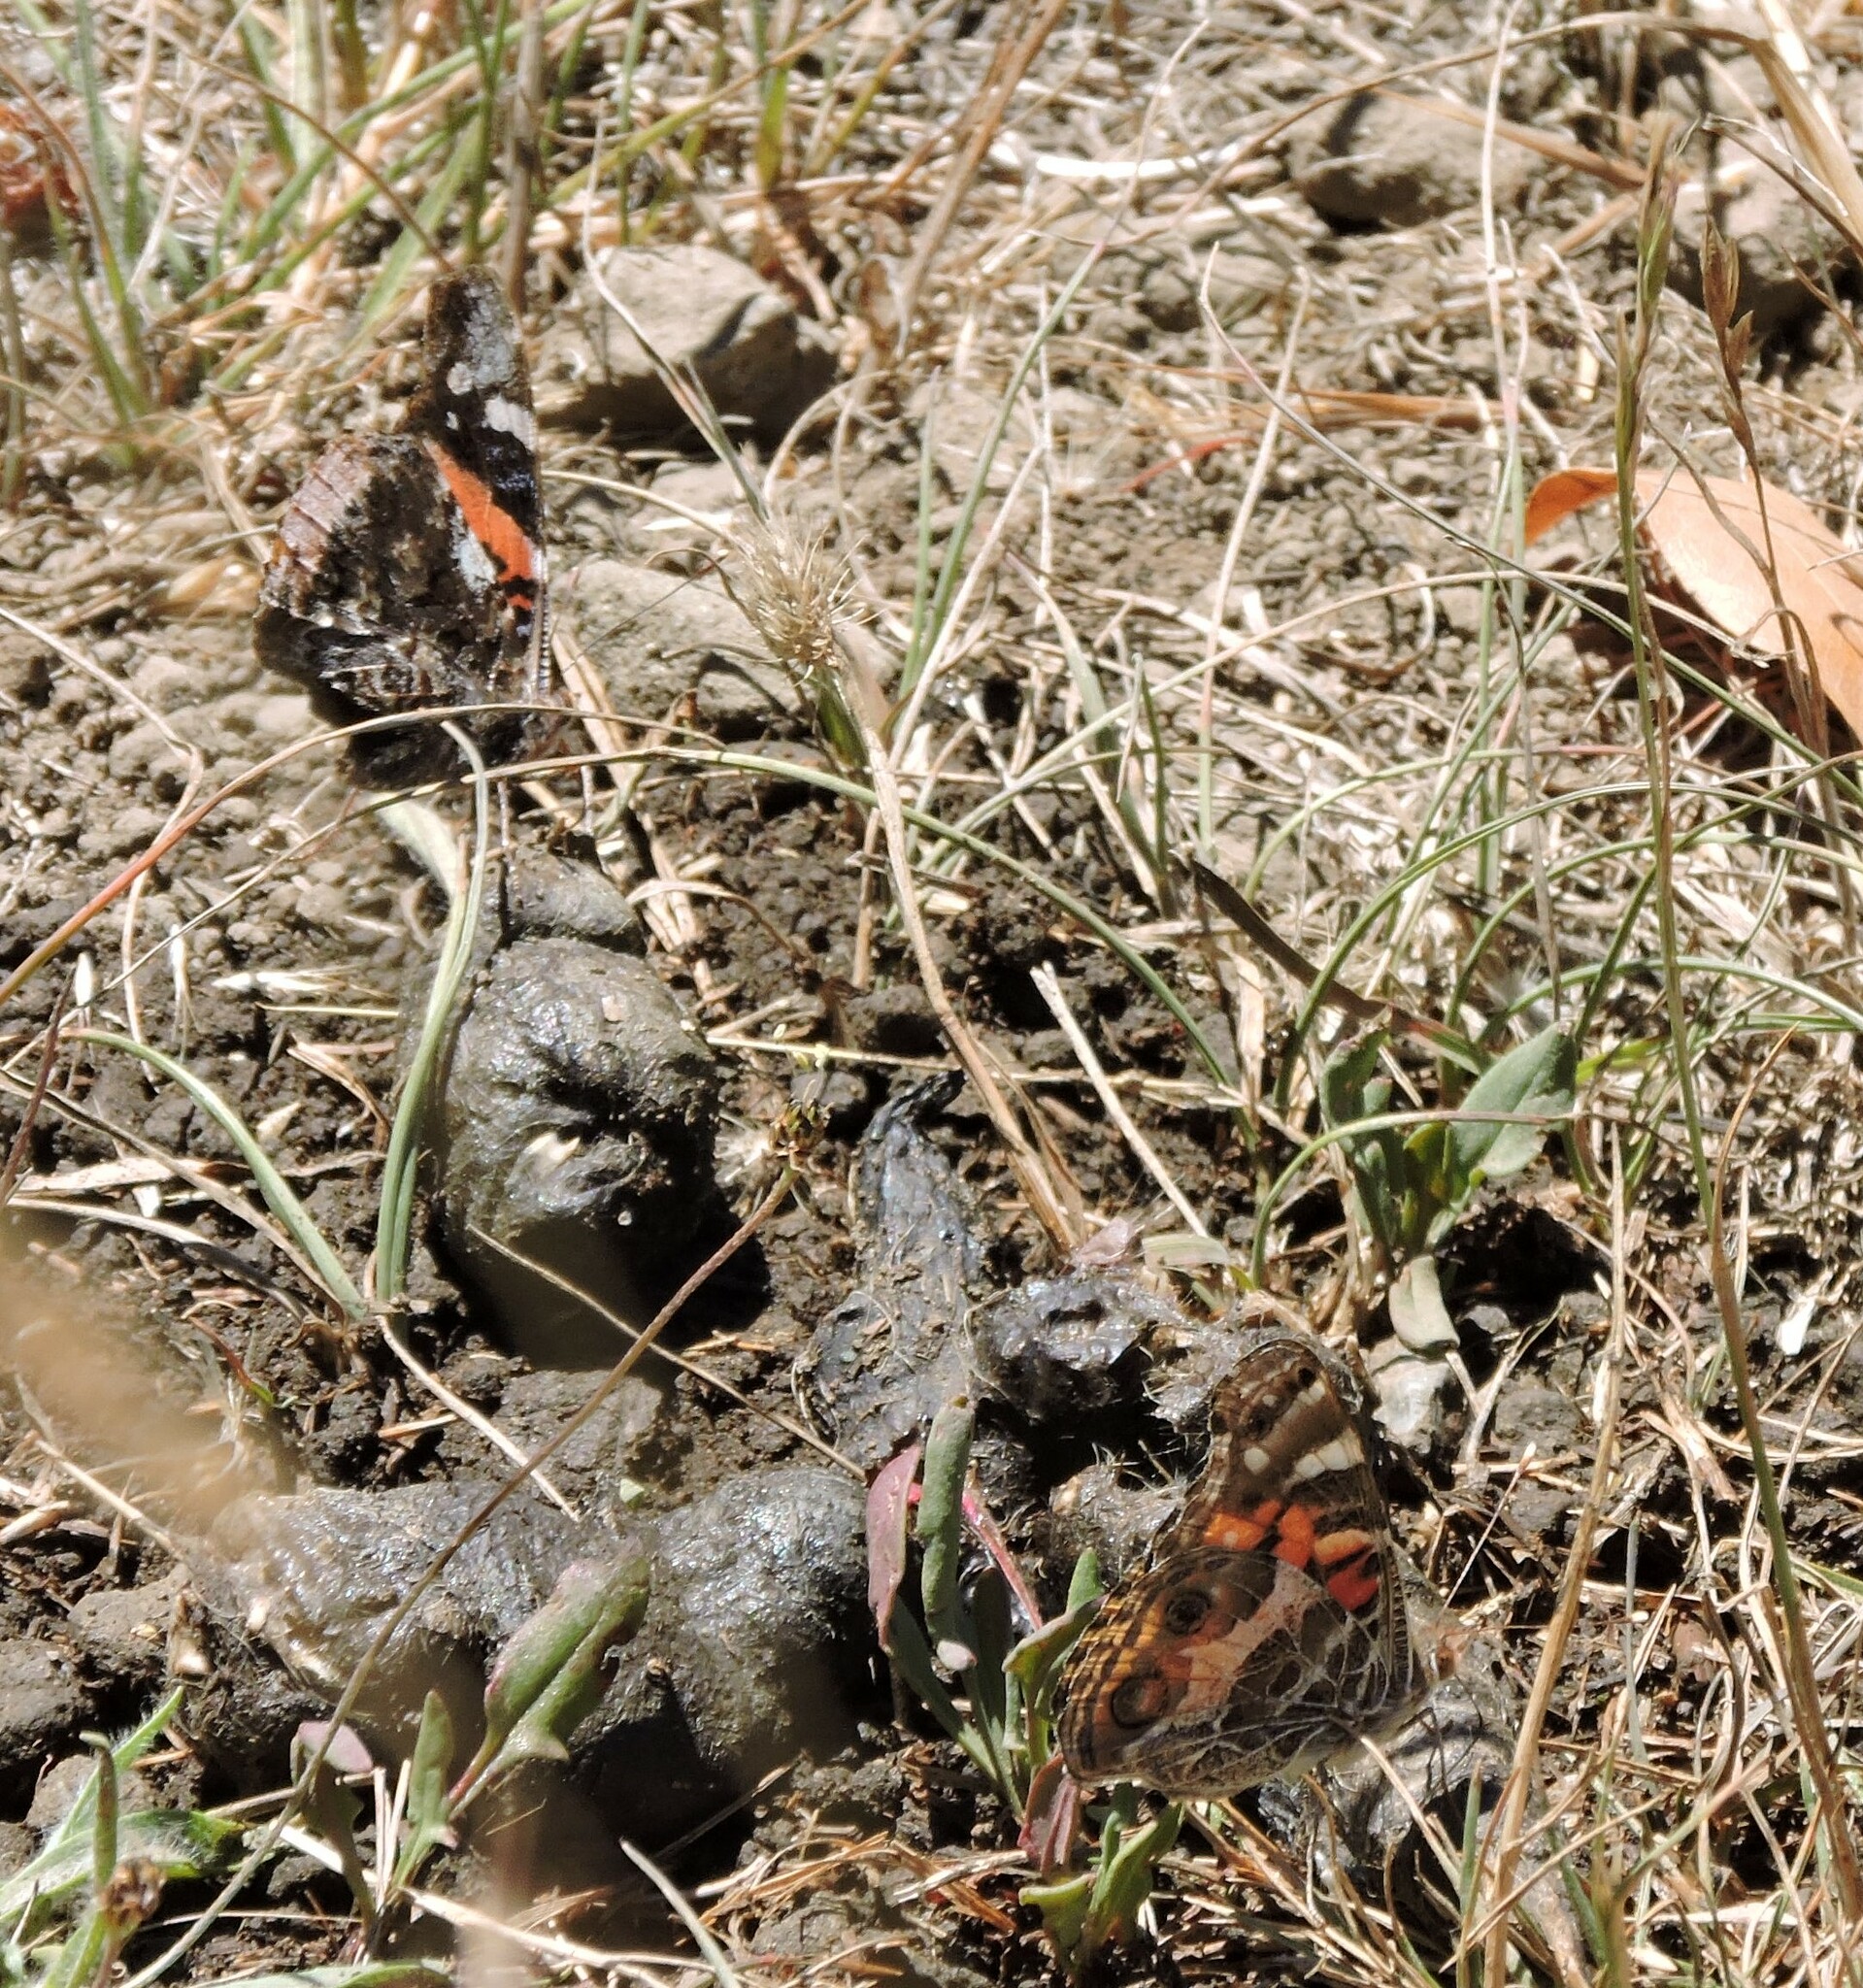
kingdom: Animalia
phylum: Arthropoda
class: Insecta
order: Lepidoptera
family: Nymphalidae
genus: Vanessa
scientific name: Vanessa virginiensis
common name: American lady
